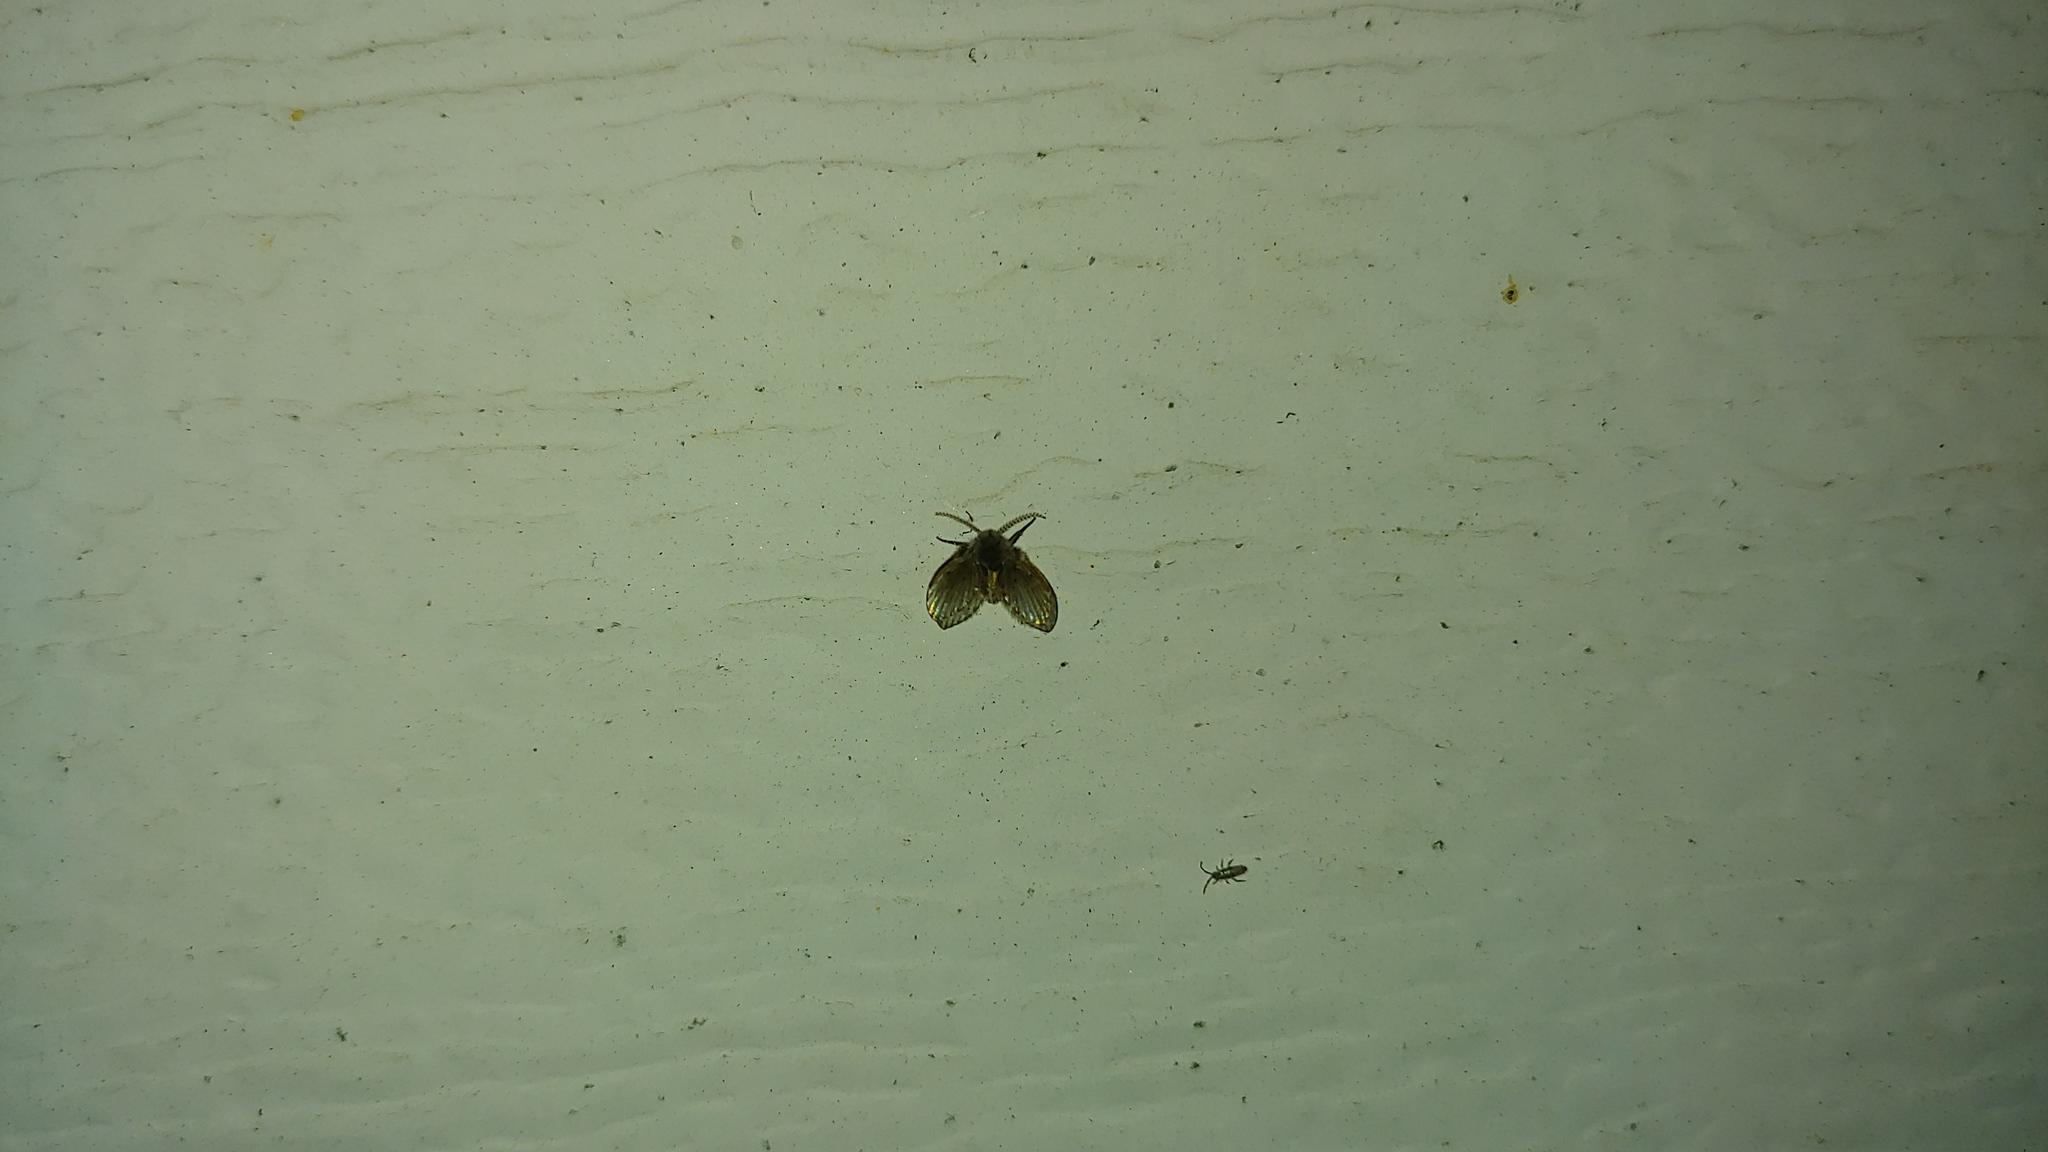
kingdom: Animalia
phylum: Arthropoda
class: Insecta
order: Diptera
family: Psychodidae
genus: Clogmia
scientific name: Clogmia albipunctatus
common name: White-spotted moth fly
